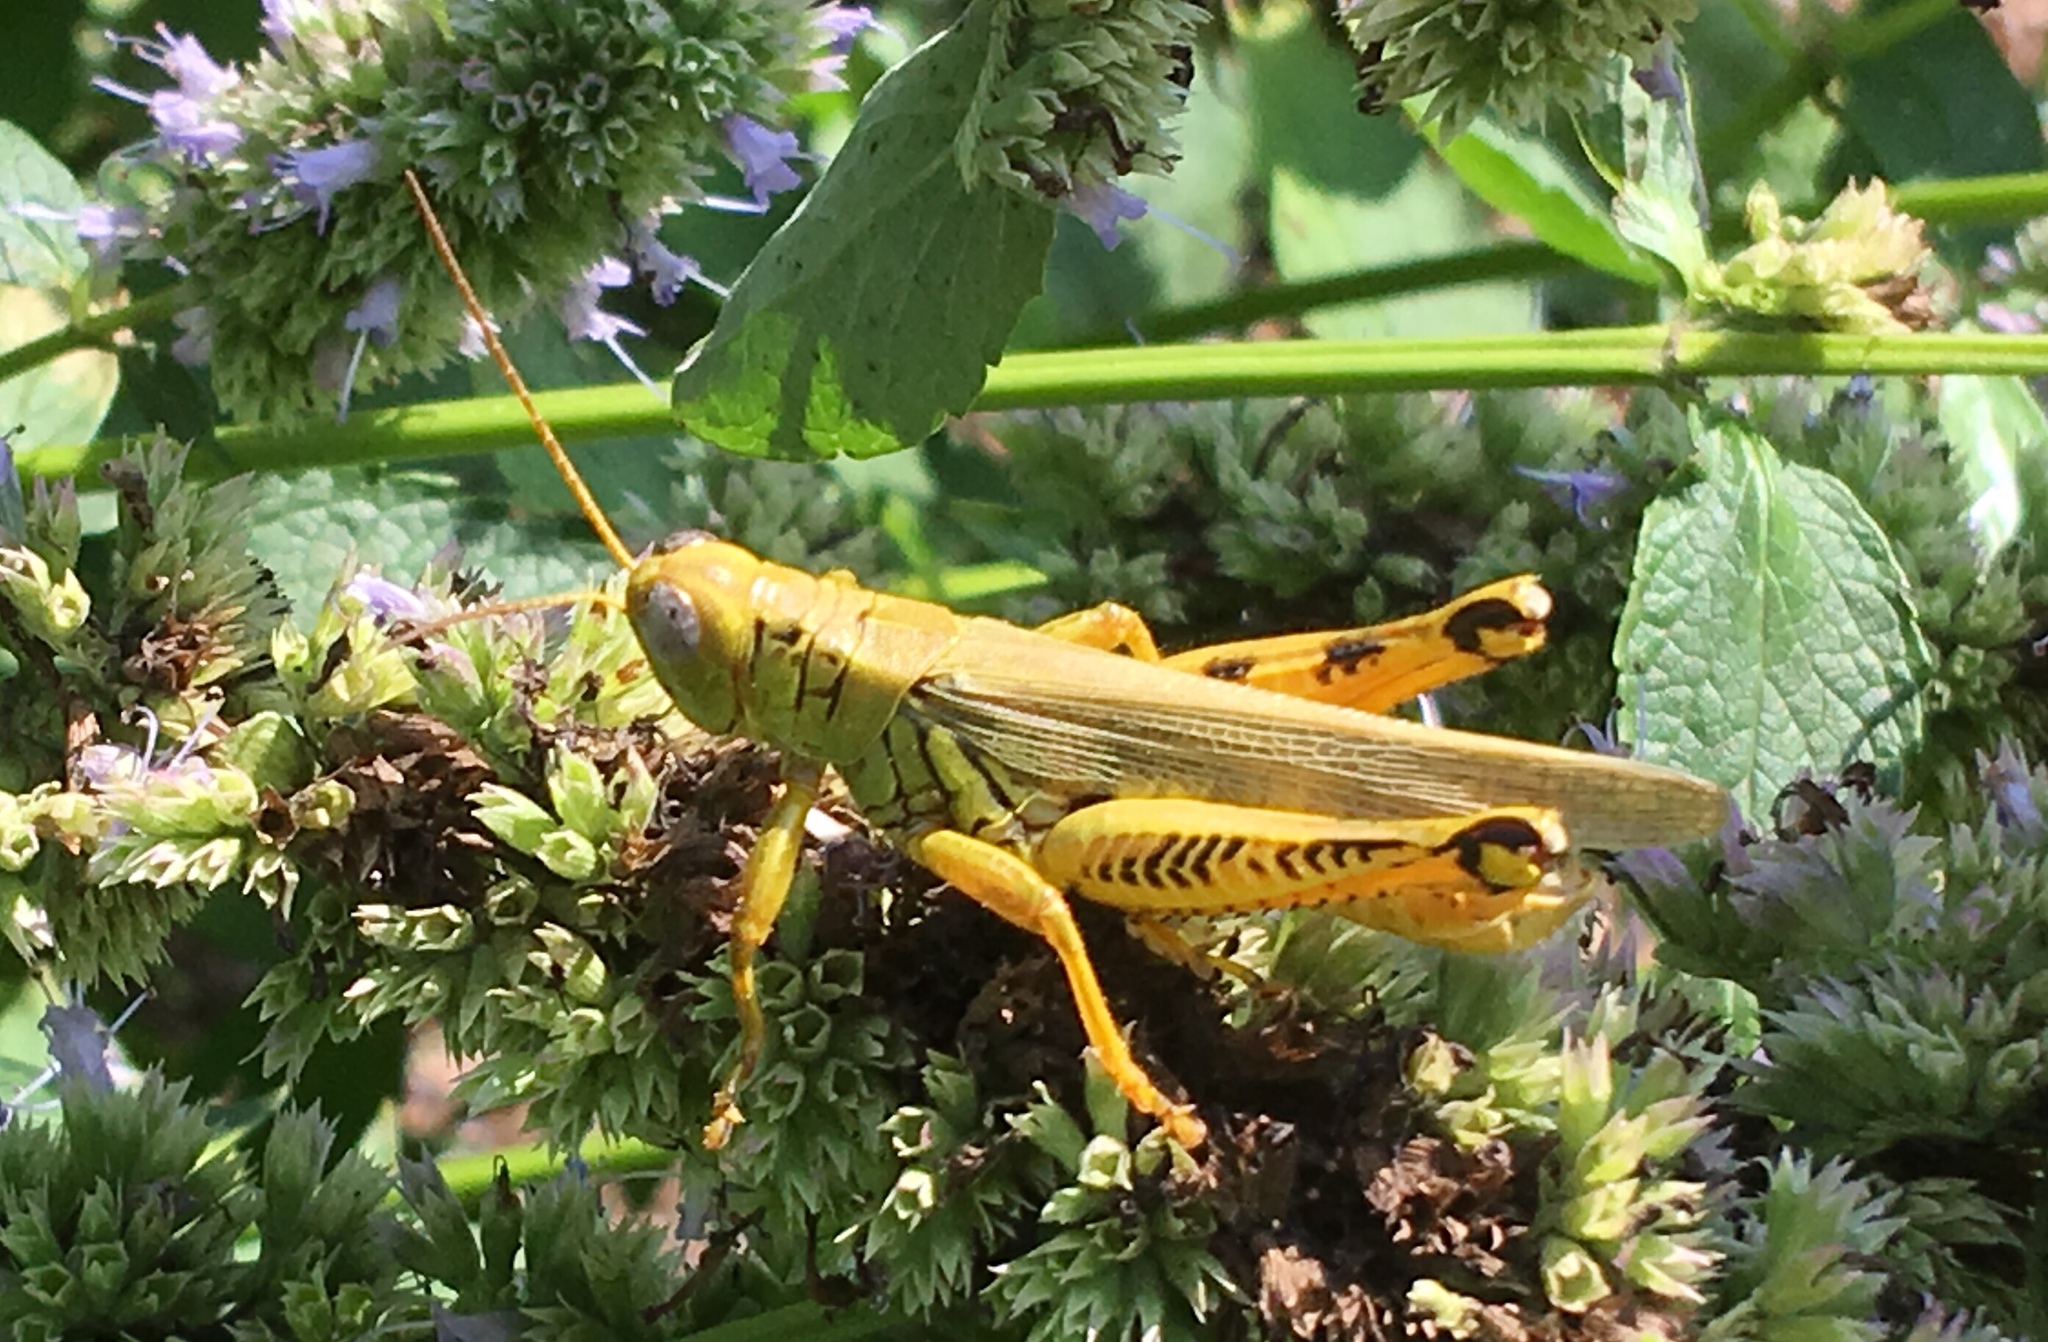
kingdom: Animalia
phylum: Arthropoda
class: Insecta
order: Orthoptera
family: Acrididae
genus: Melanoplus
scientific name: Melanoplus differentialis
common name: Differential grasshopper
